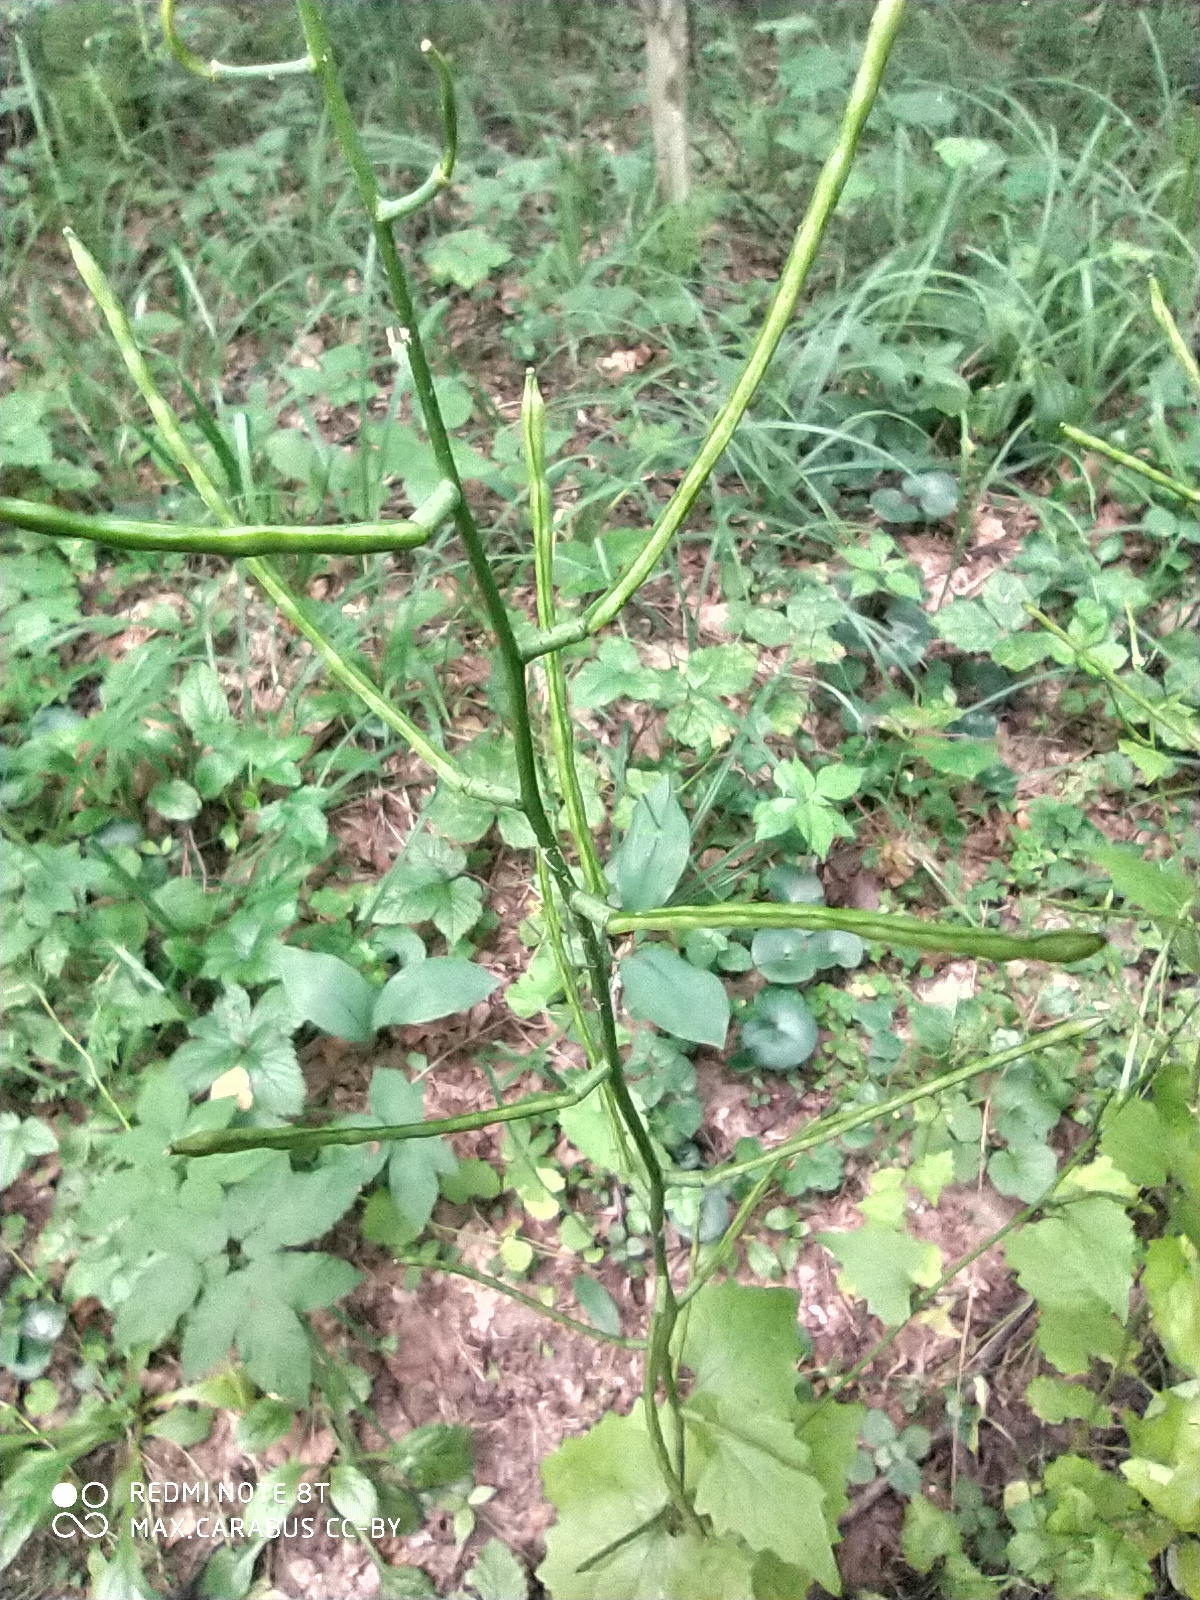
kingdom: Plantae
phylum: Tracheophyta
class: Magnoliopsida
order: Brassicales
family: Brassicaceae
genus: Alliaria
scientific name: Alliaria petiolata
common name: Garlic mustard
